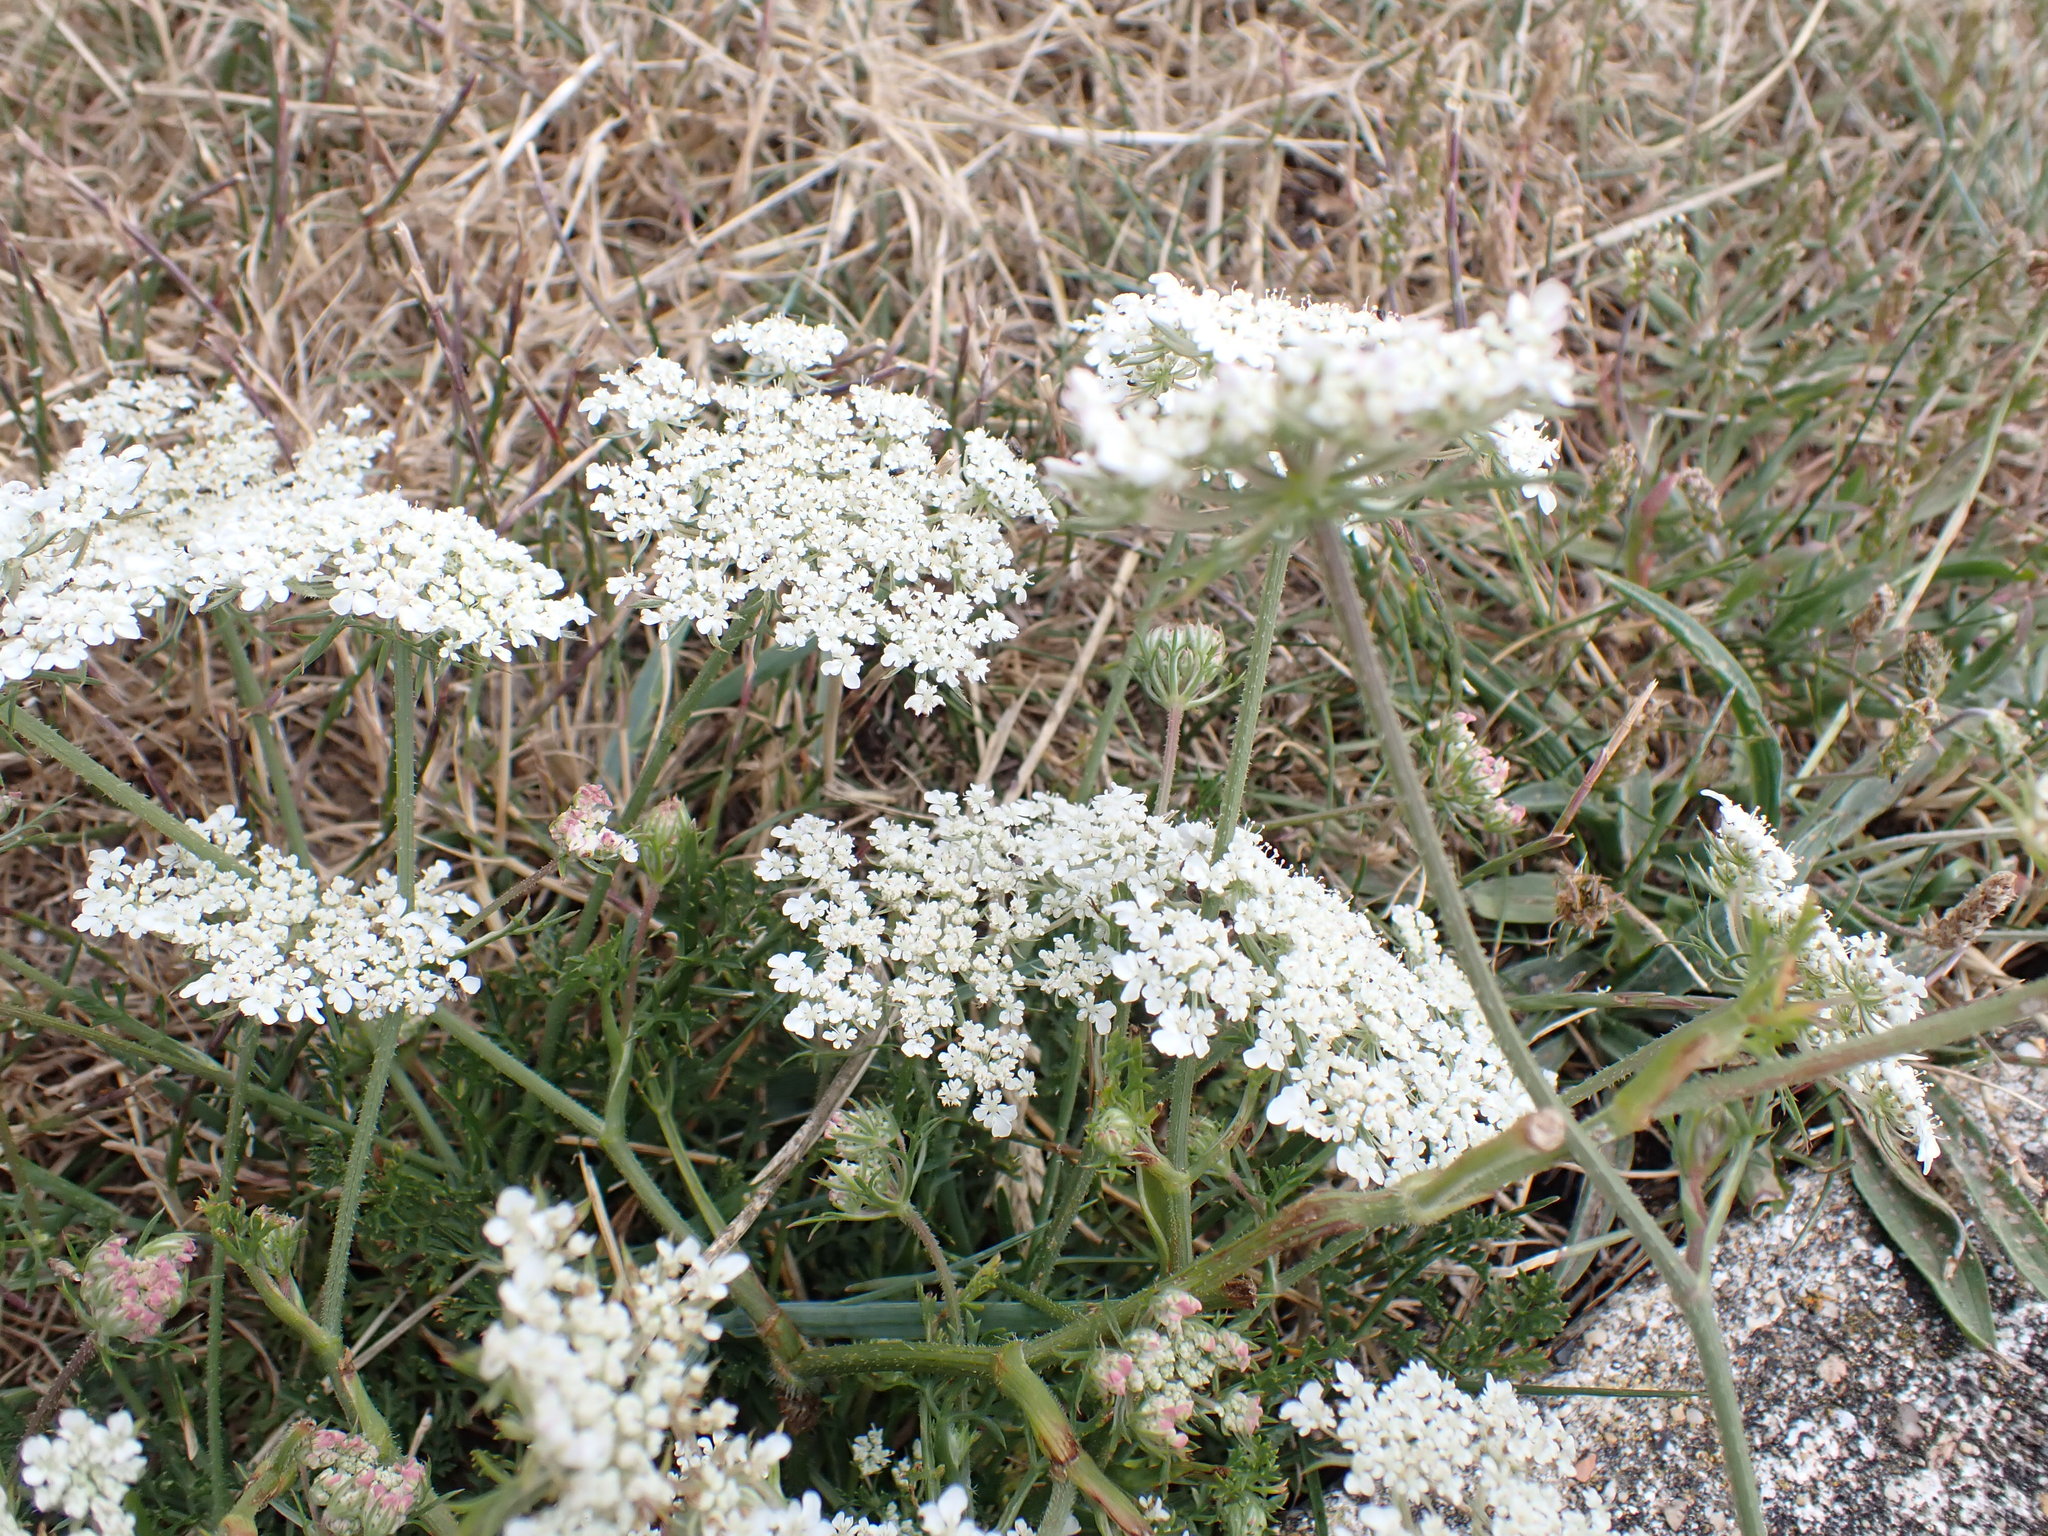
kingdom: Plantae
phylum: Tracheophyta
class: Magnoliopsida
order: Apiales
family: Apiaceae
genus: Daucus
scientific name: Daucus carota
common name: Wild carrot
